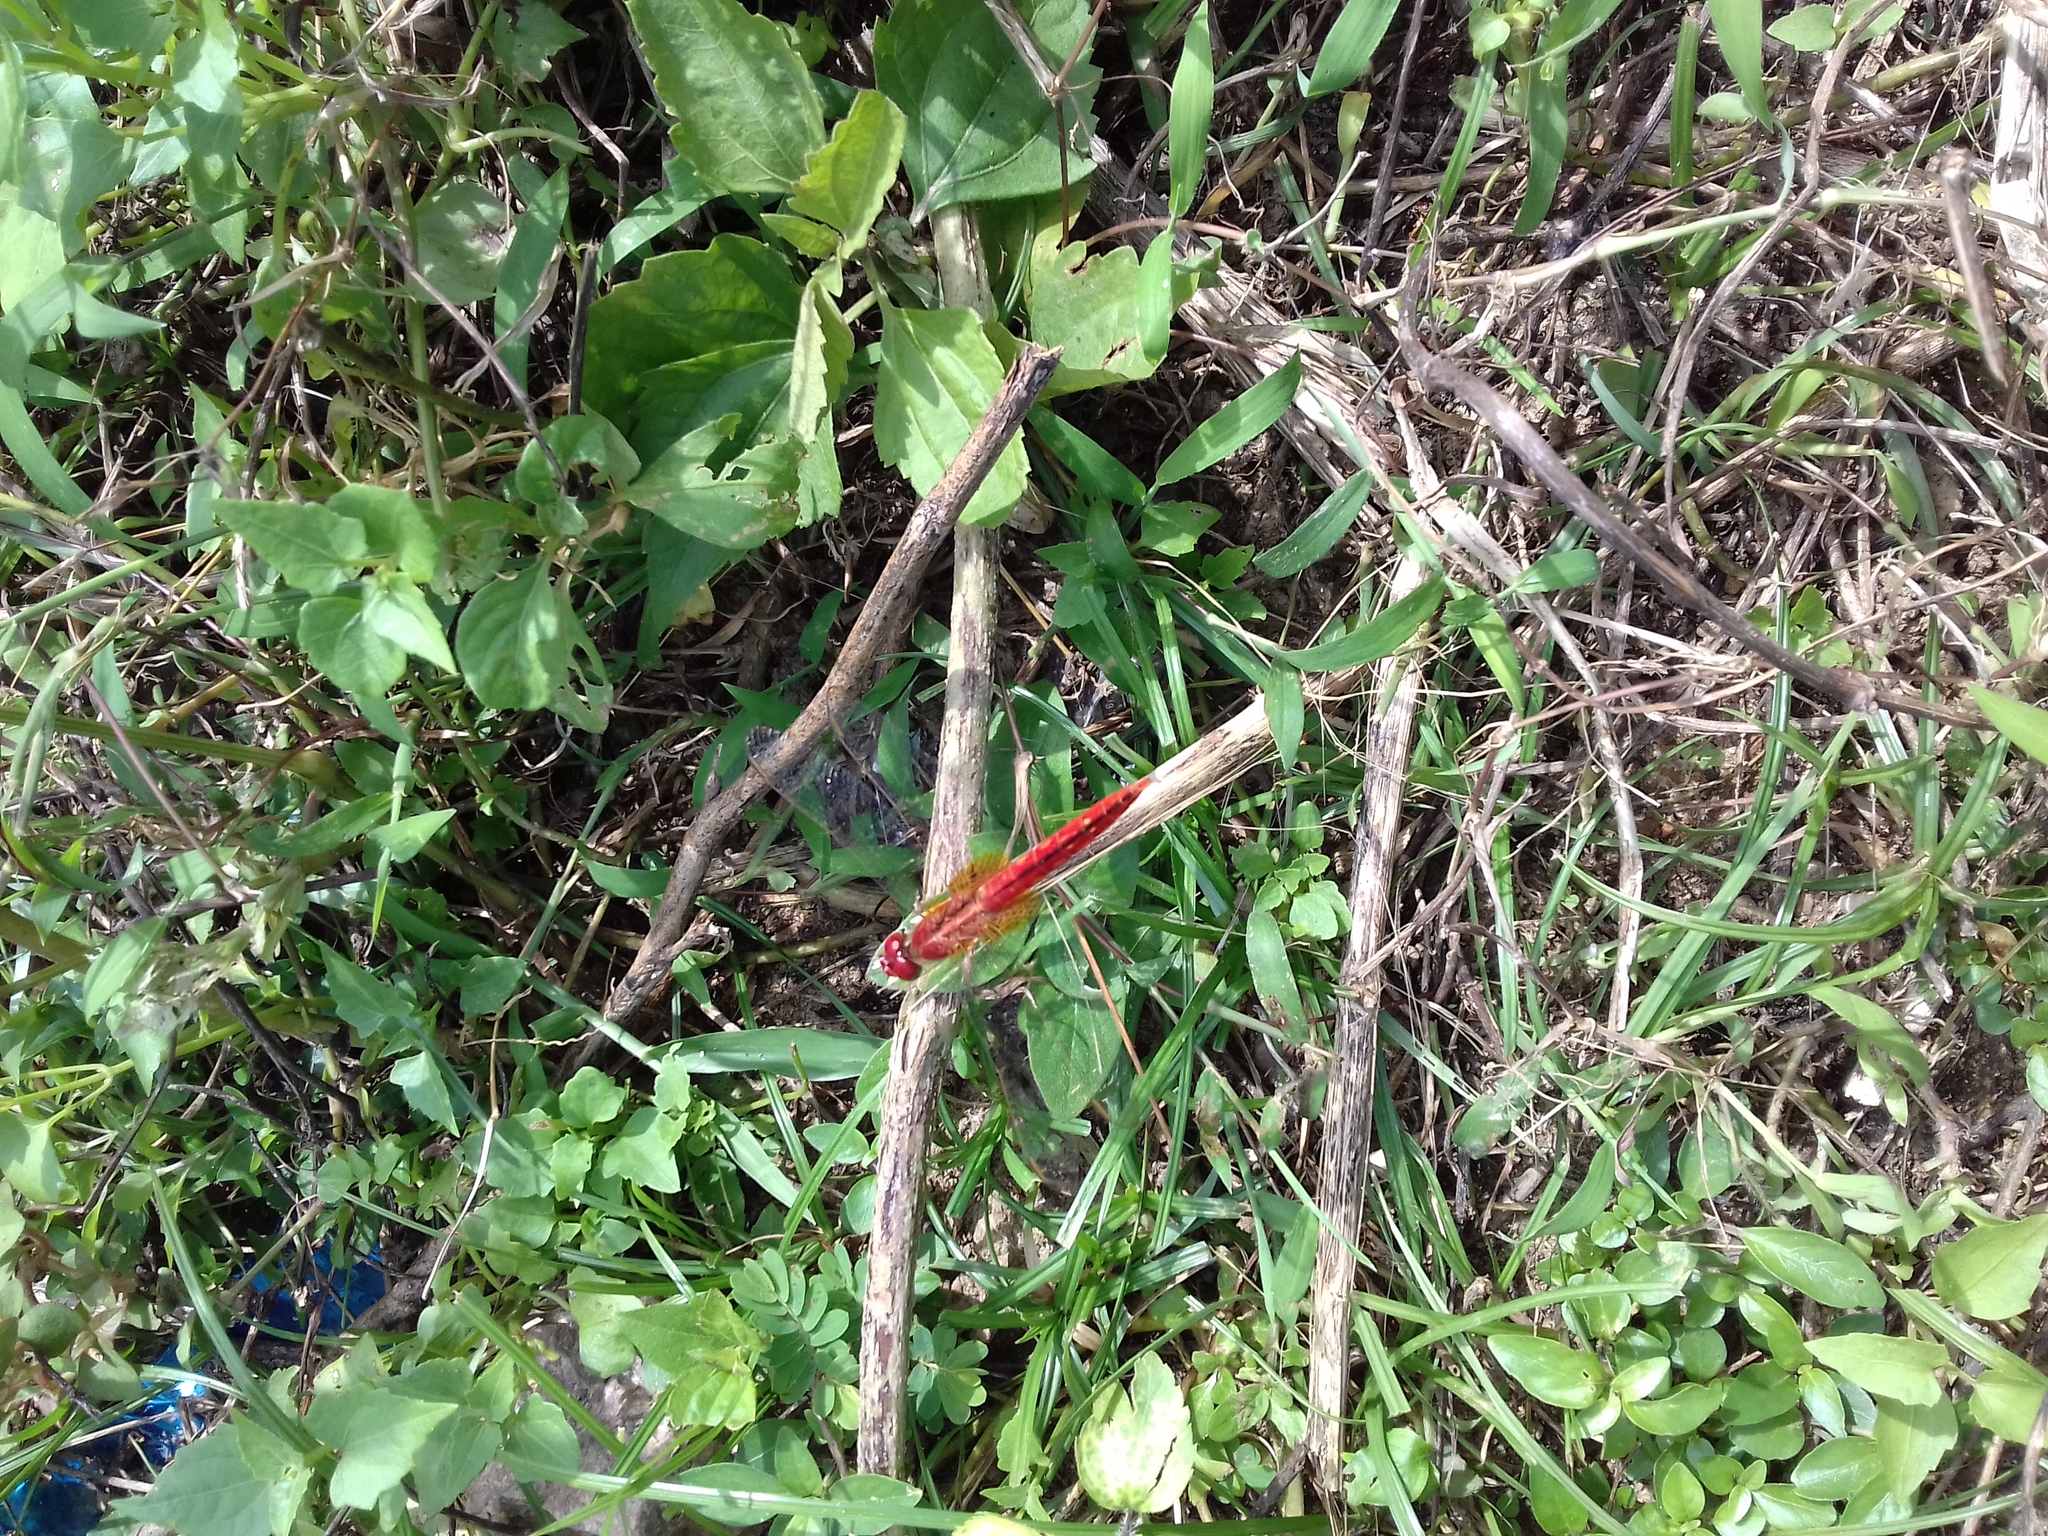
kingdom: Animalia
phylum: Arthropoda
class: Insecta
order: Odonata
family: Libellulidae
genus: Crocothemis
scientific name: Crocothemis servilia
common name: Scarlet skimmer
